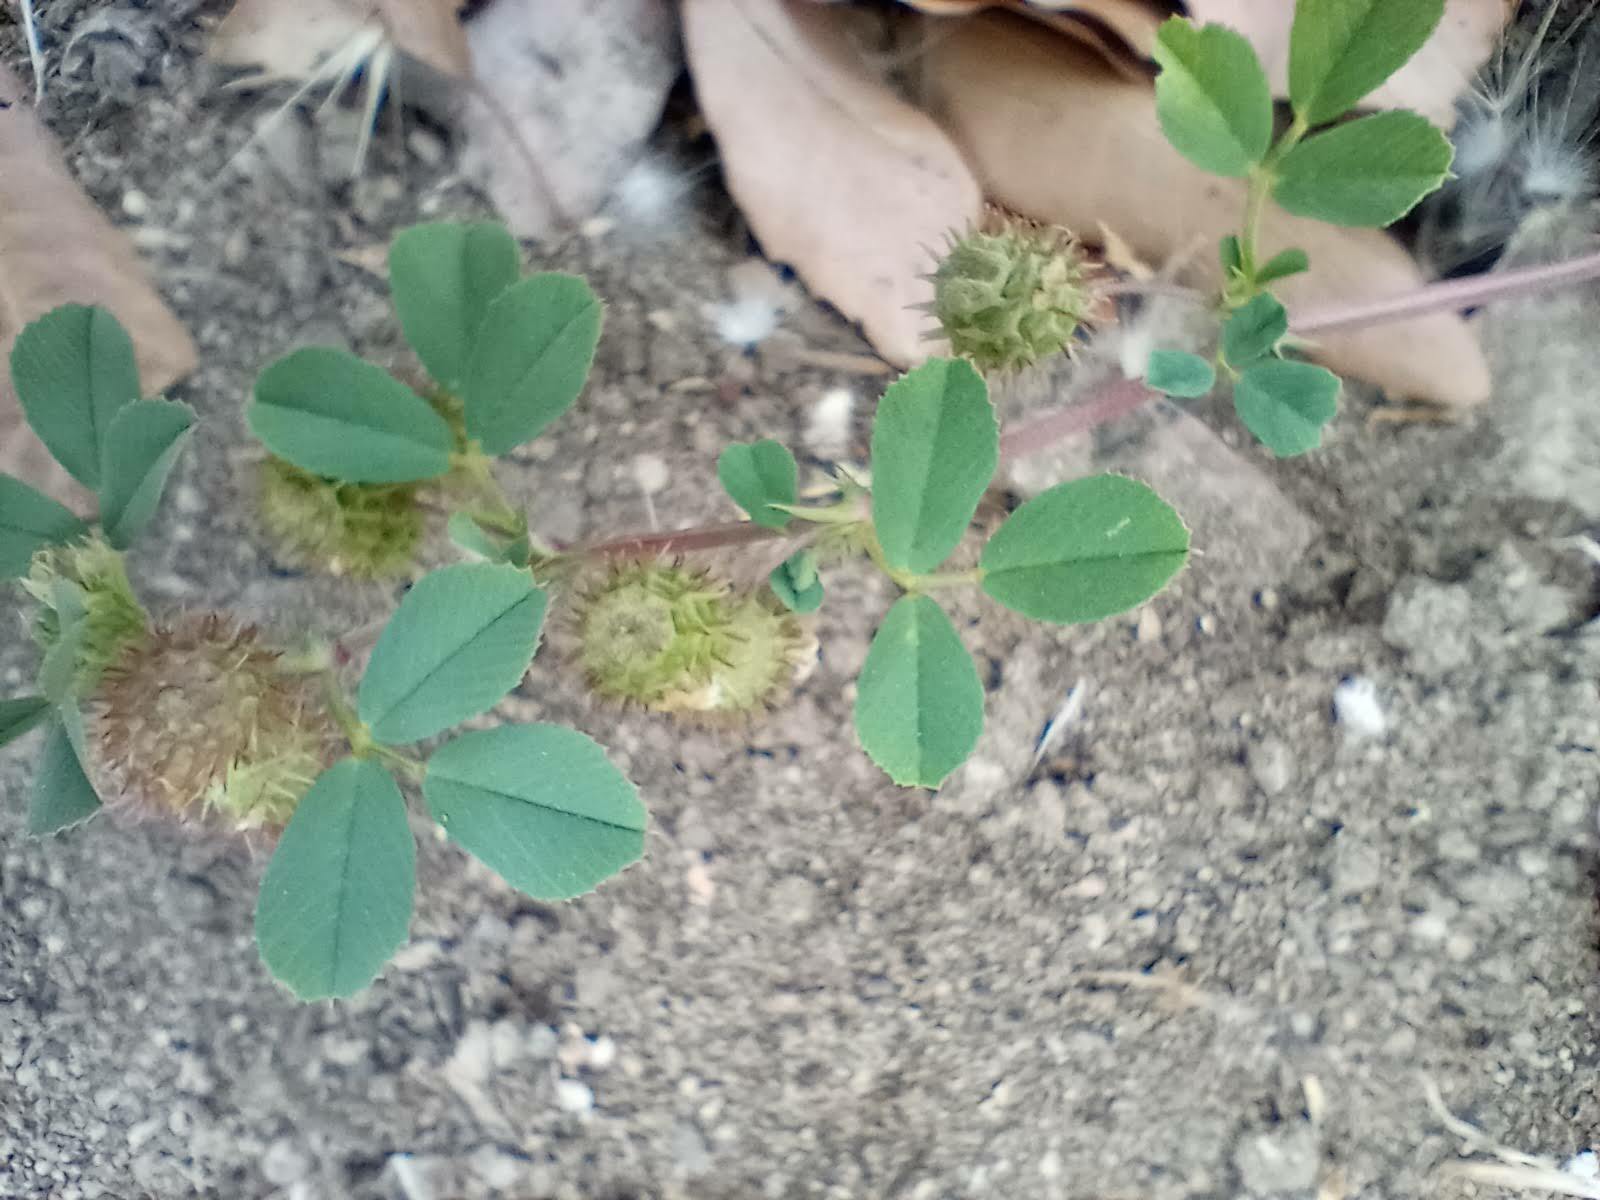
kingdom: Plantae
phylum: Tracheophyta
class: Magnoliopsida
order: Fabales
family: Fabaceae
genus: Medicago
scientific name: Medicago polymorpha
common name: Burclover
